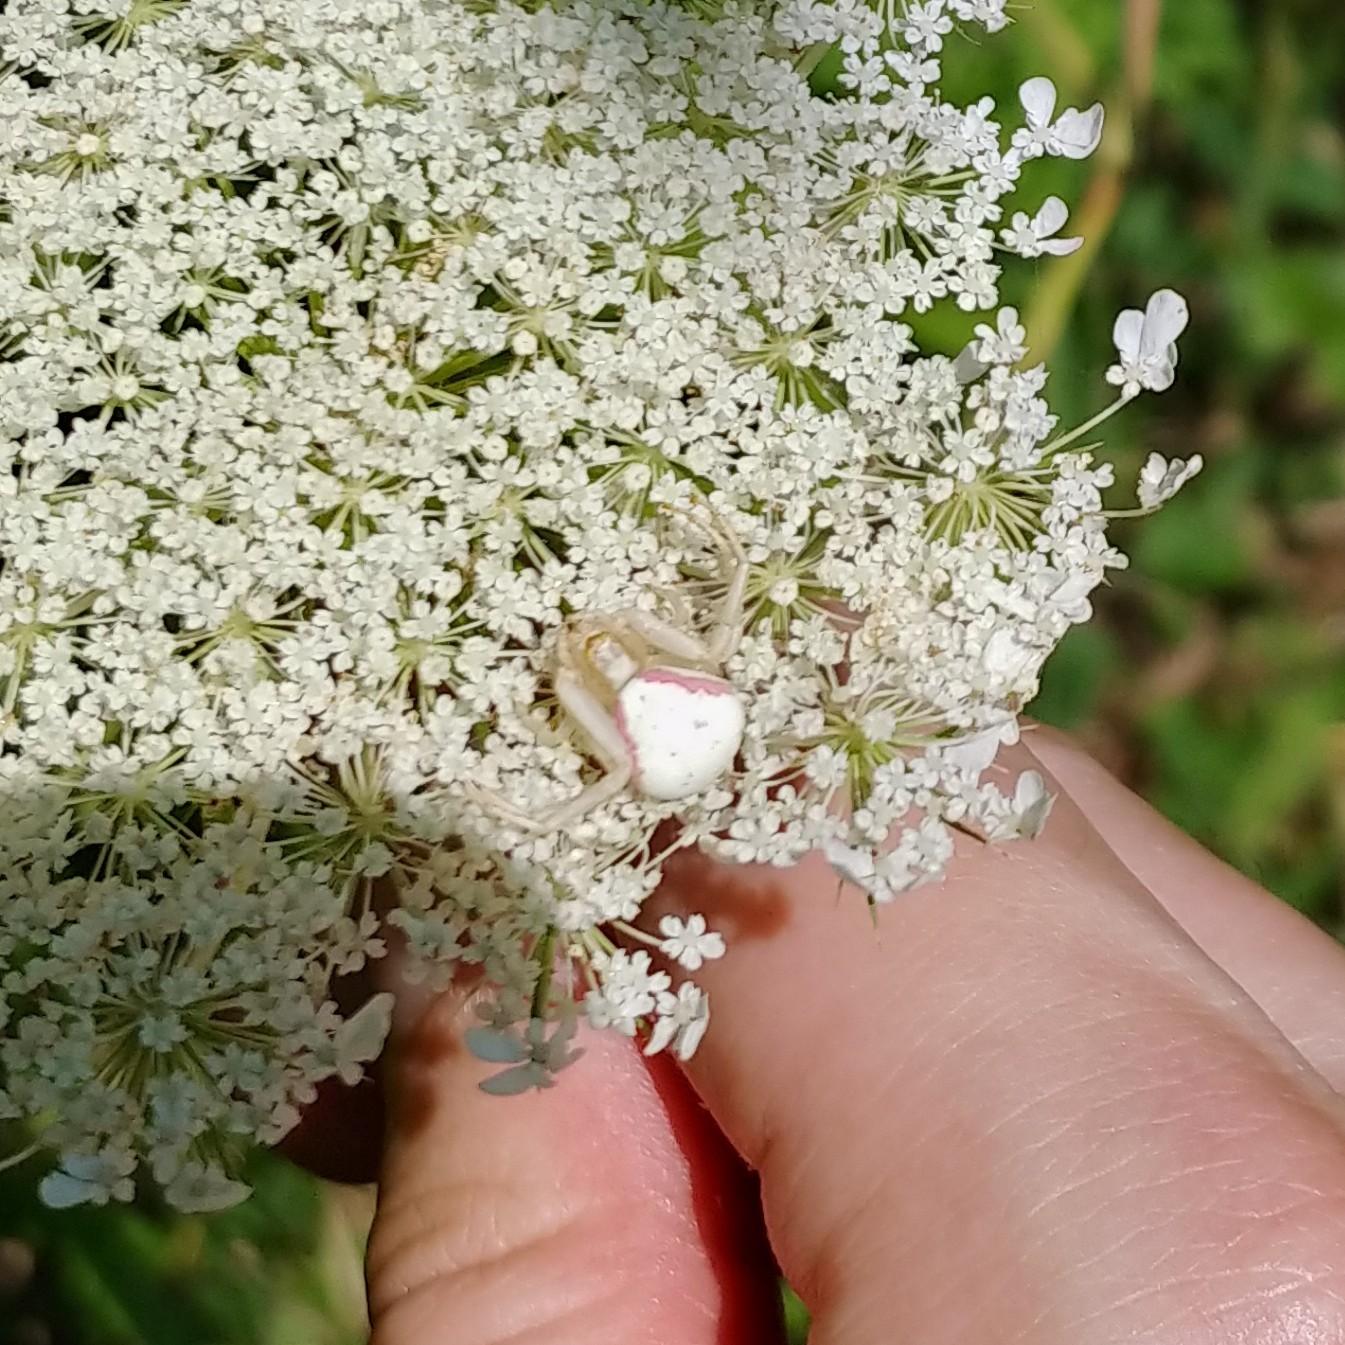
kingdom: Animalia
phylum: Arthropoda
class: Arachnida
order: Araneae
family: Thomisidae
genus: Misumena
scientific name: Misumena vatia
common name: Goldenrod crab spider
